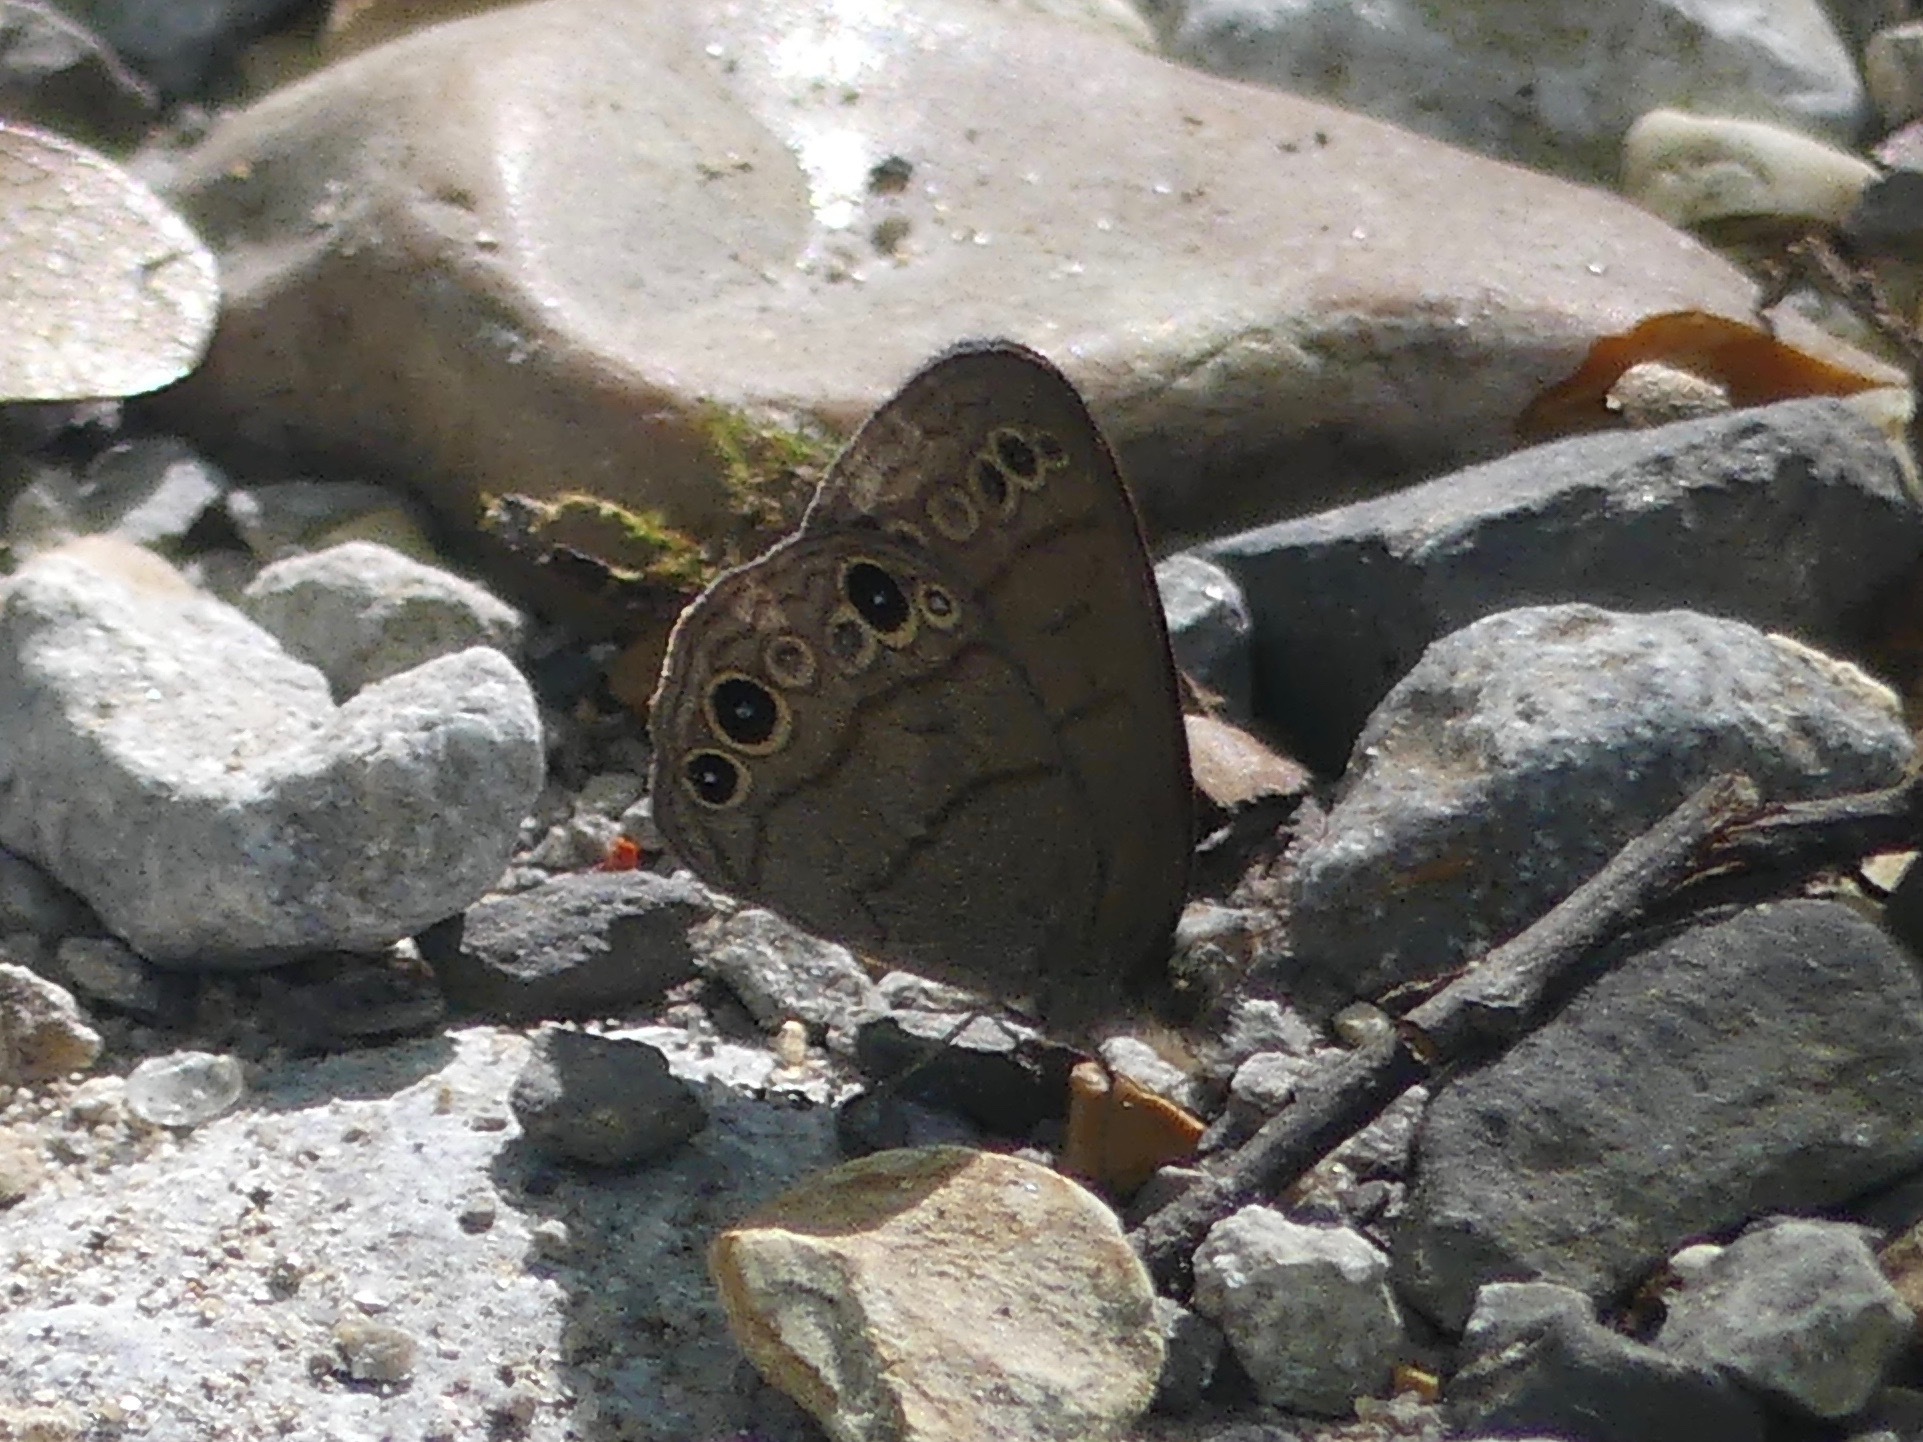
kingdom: Animalia
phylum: Arthropoda
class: Insecta
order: Lepidoptera
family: Nymphalidae
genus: Hermeuptychia
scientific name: Hermeuptychia hermes
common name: Hermes satyr
